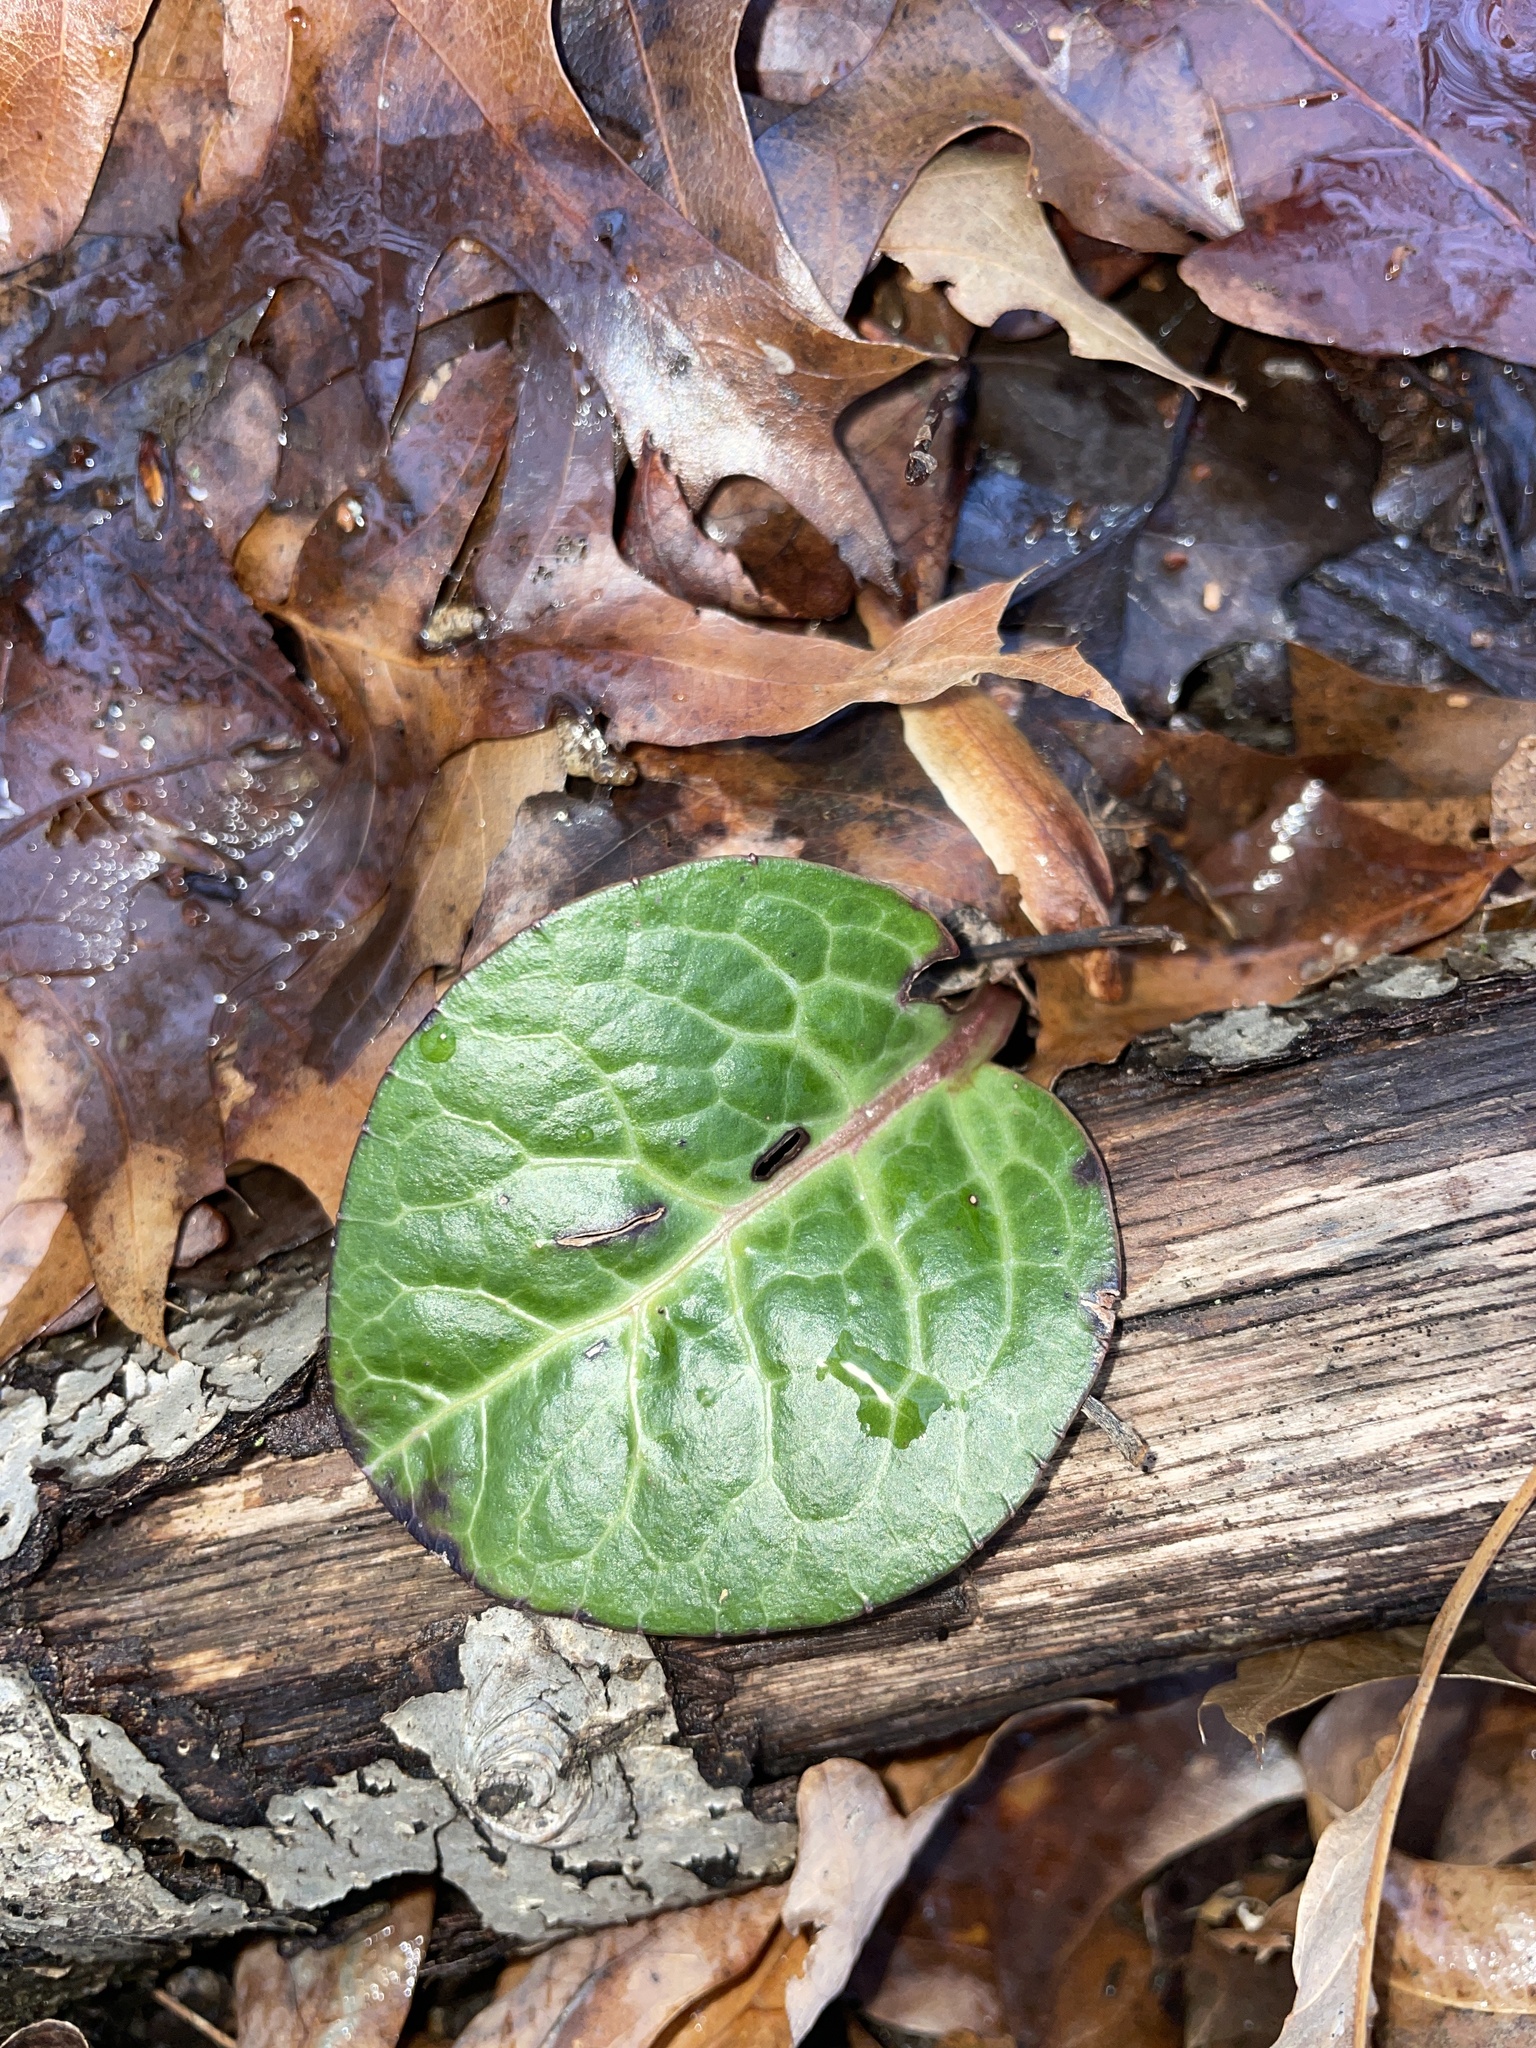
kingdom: Plantae
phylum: Tracheophyta
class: Magnoliopsida
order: Ericales
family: Ericaceae
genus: Pyrola
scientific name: Pyrola americana
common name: American wintergreen
